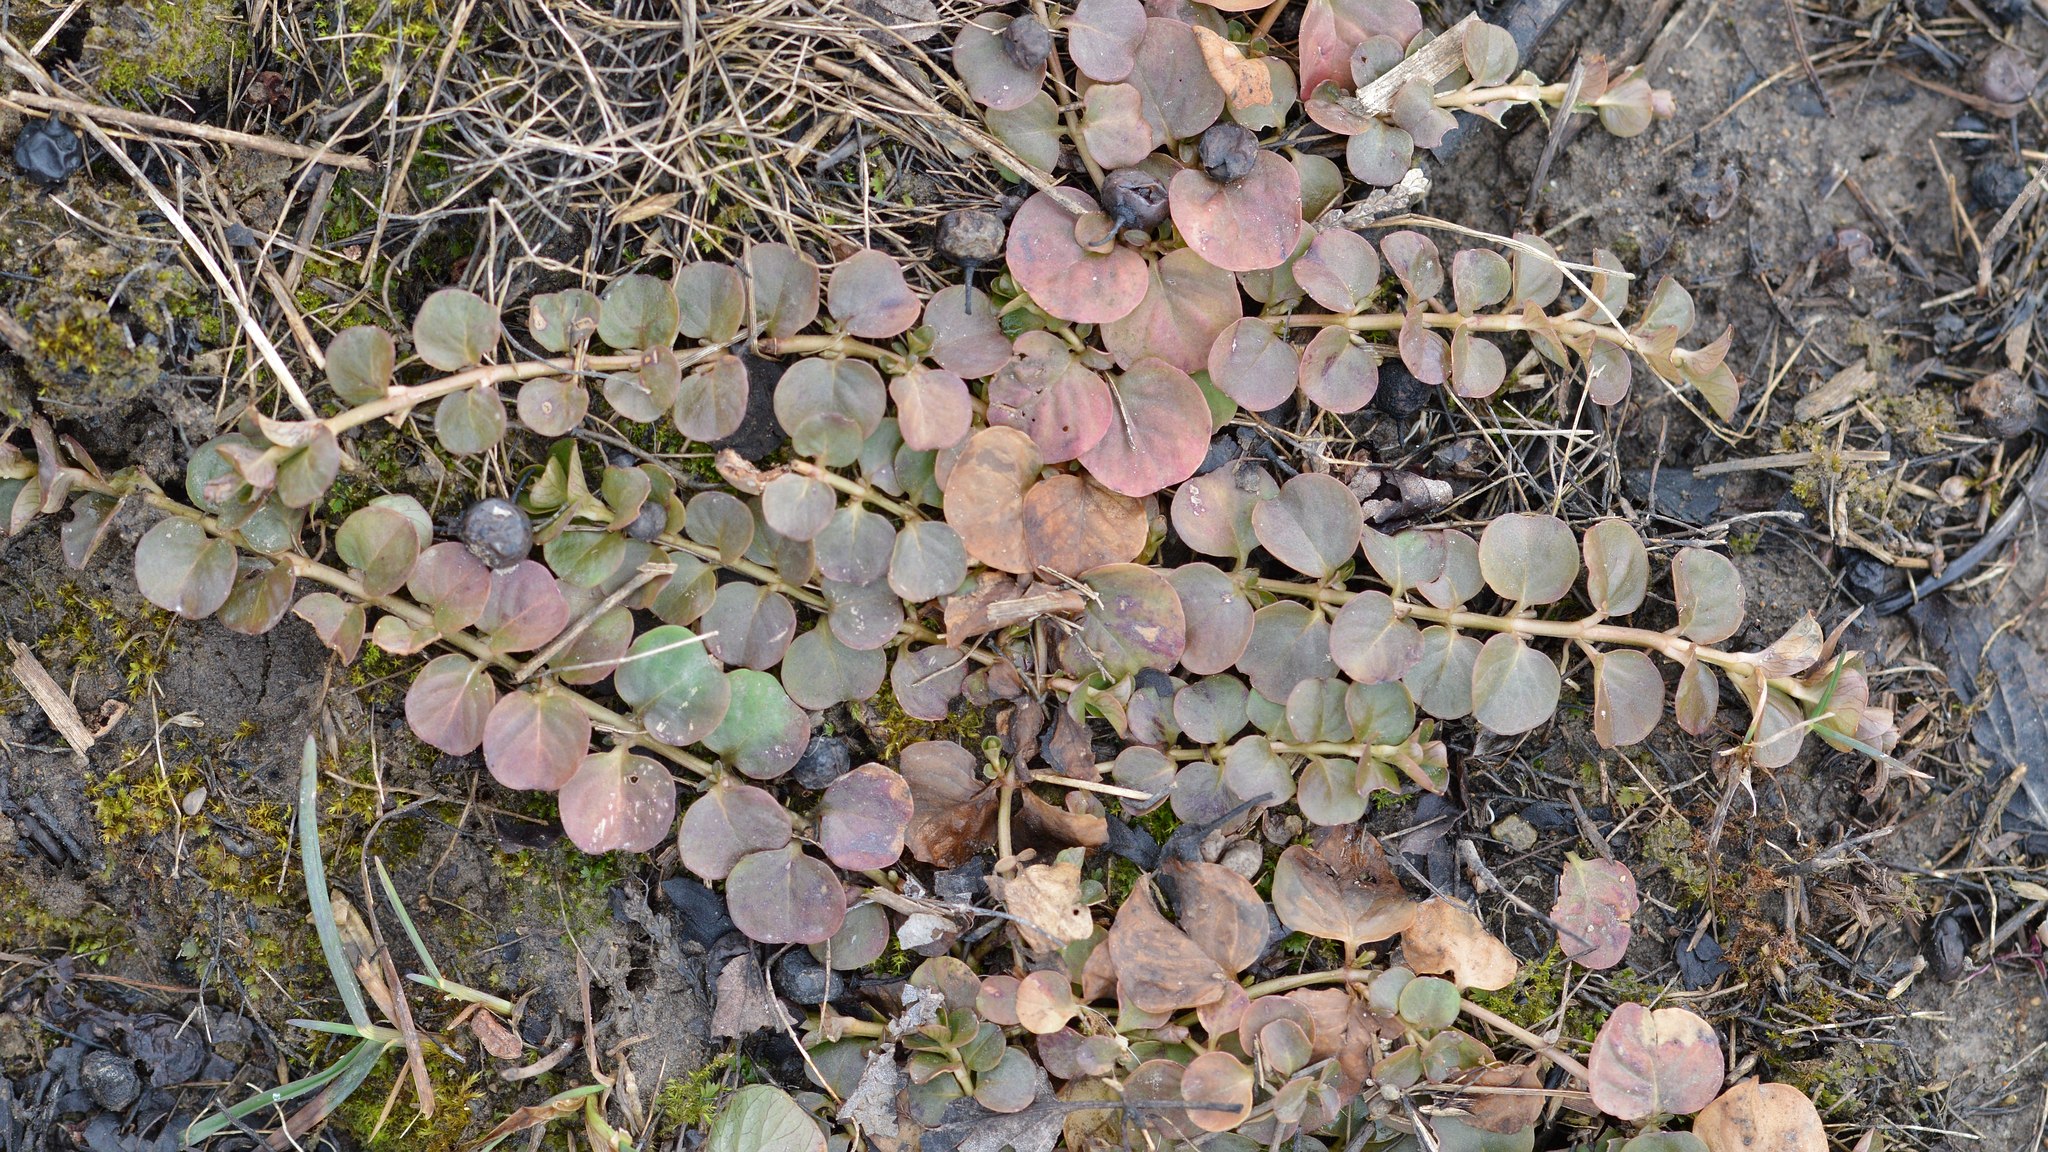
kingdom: Plantae
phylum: Tracheophyta
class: Magnoliopsida
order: Ericales
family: Primulaceae
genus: Lysimachia
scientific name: Lysimachia nummularia
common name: Moneywort
